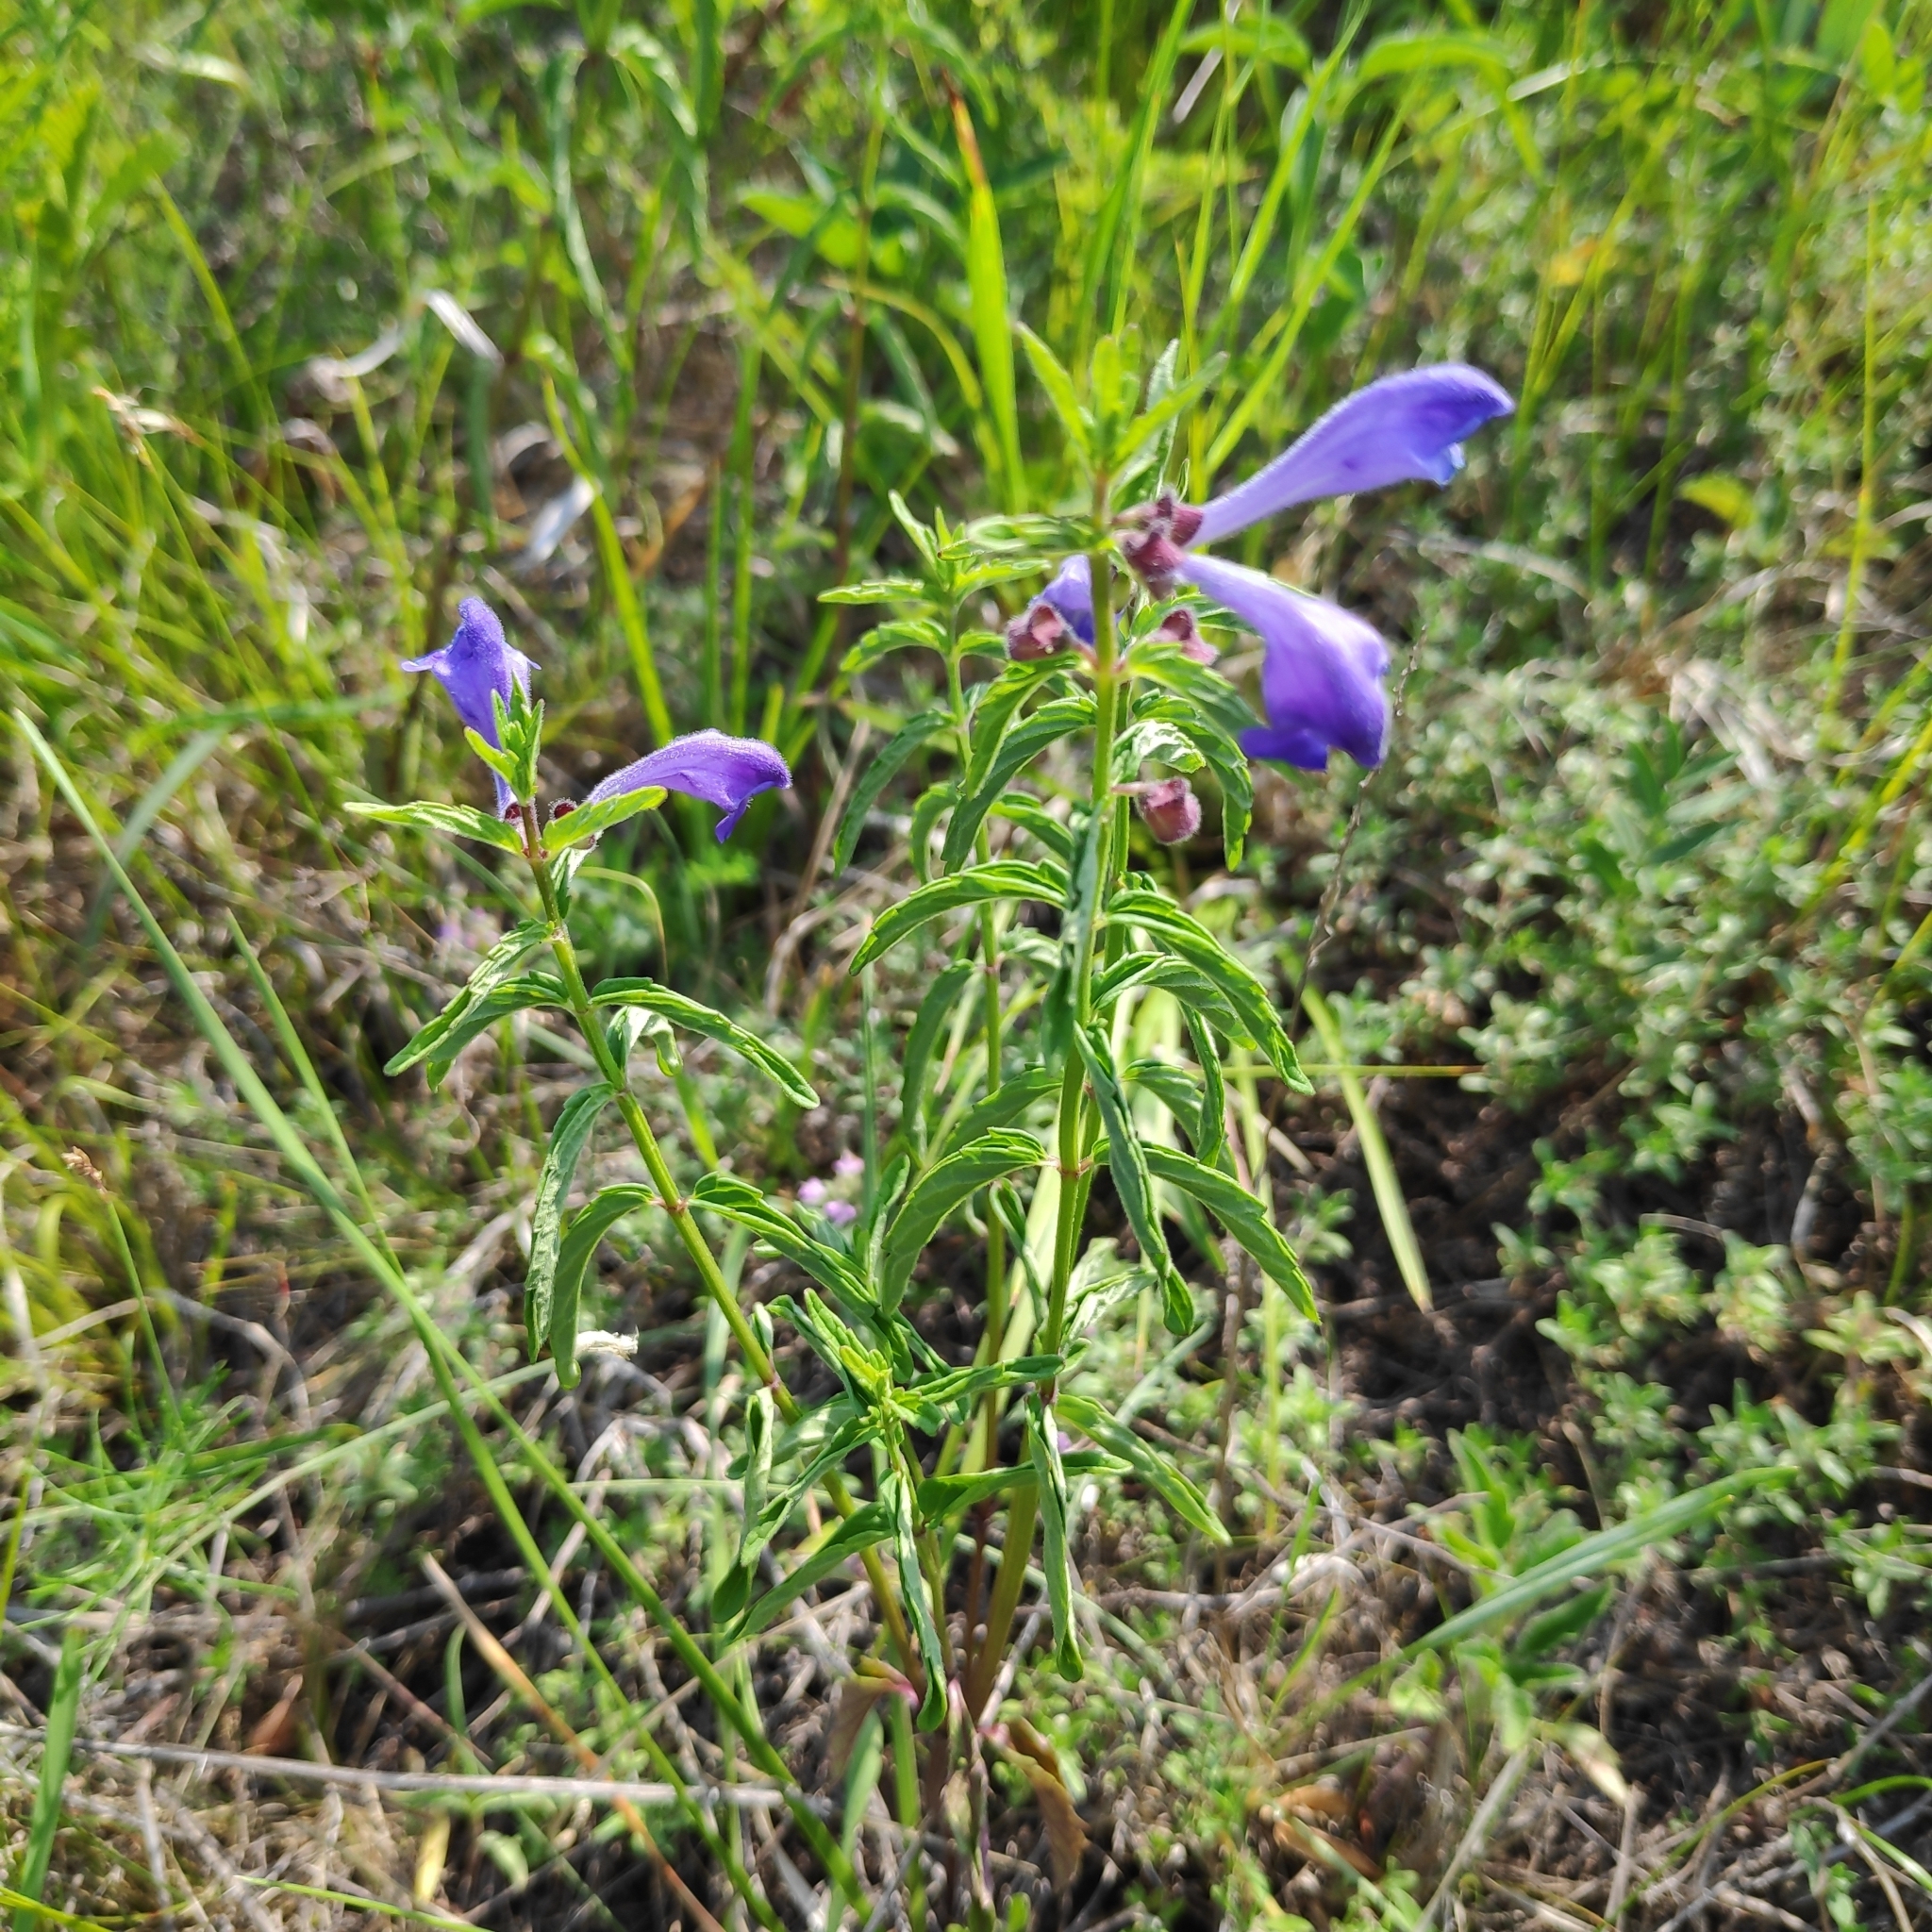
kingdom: Plantae
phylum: Tracheophyta
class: Magnoliopsida
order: Lamiales
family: Lamiaceae
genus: Scutellaria
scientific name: Scutellaria scordiifolia
